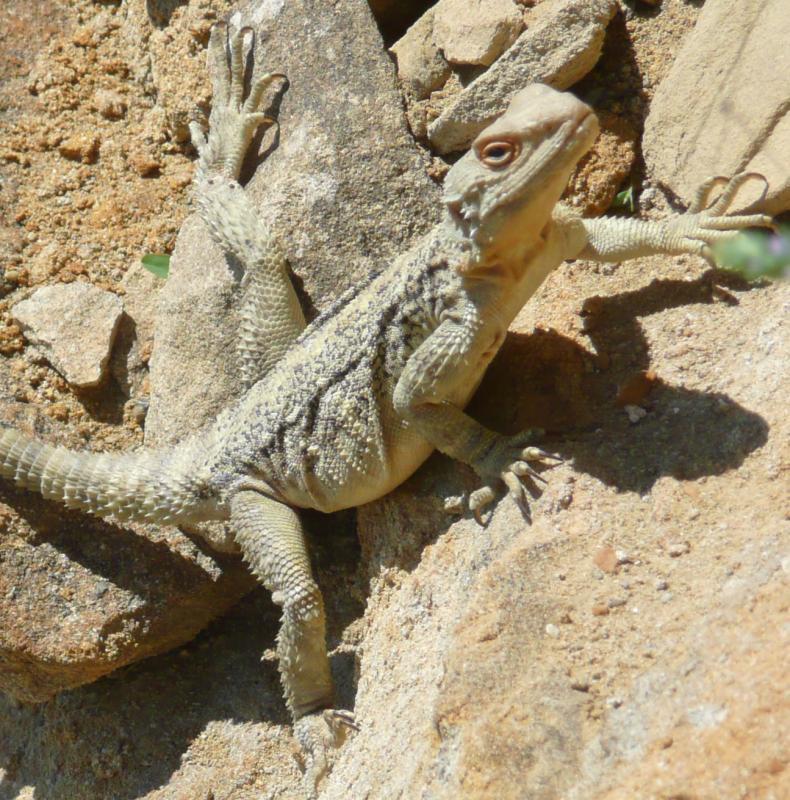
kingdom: Animalia
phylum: Chordata
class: Squamata
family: Agamidae
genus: Paralaudakia
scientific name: Paralaudakia caucasia
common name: Caucasian agama
